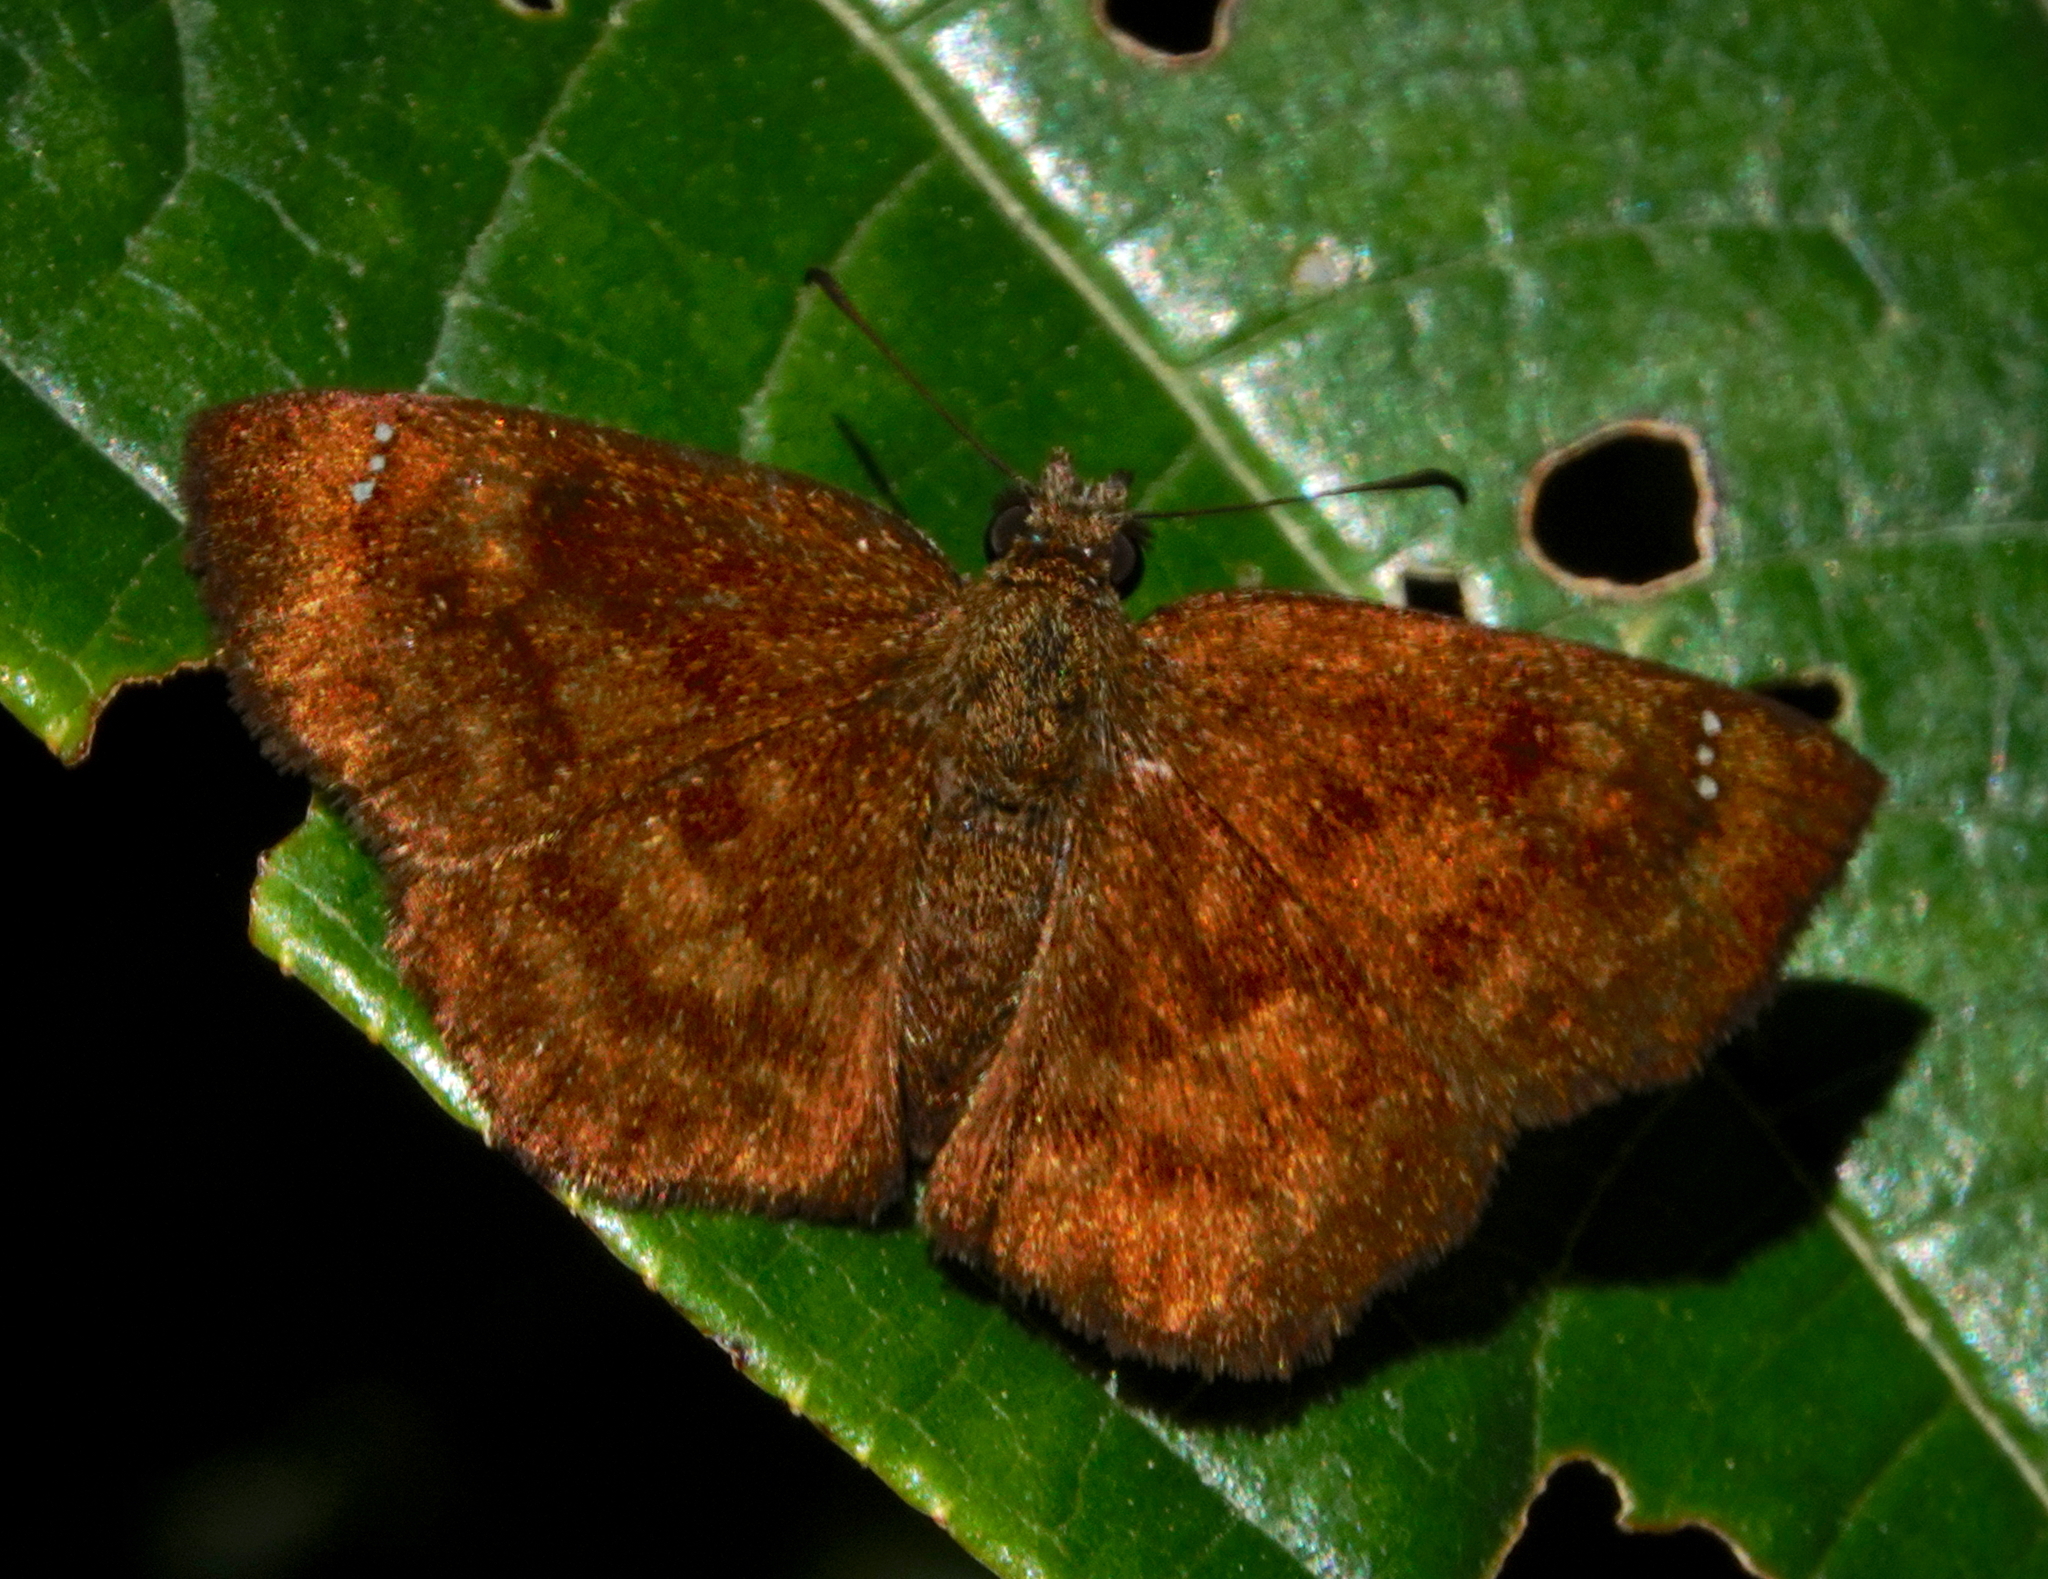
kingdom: Animalia
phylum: Arthropoda
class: Insecta
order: Lepidoptera
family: Hesperiidae
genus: Bolla
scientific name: Bolla tetra
